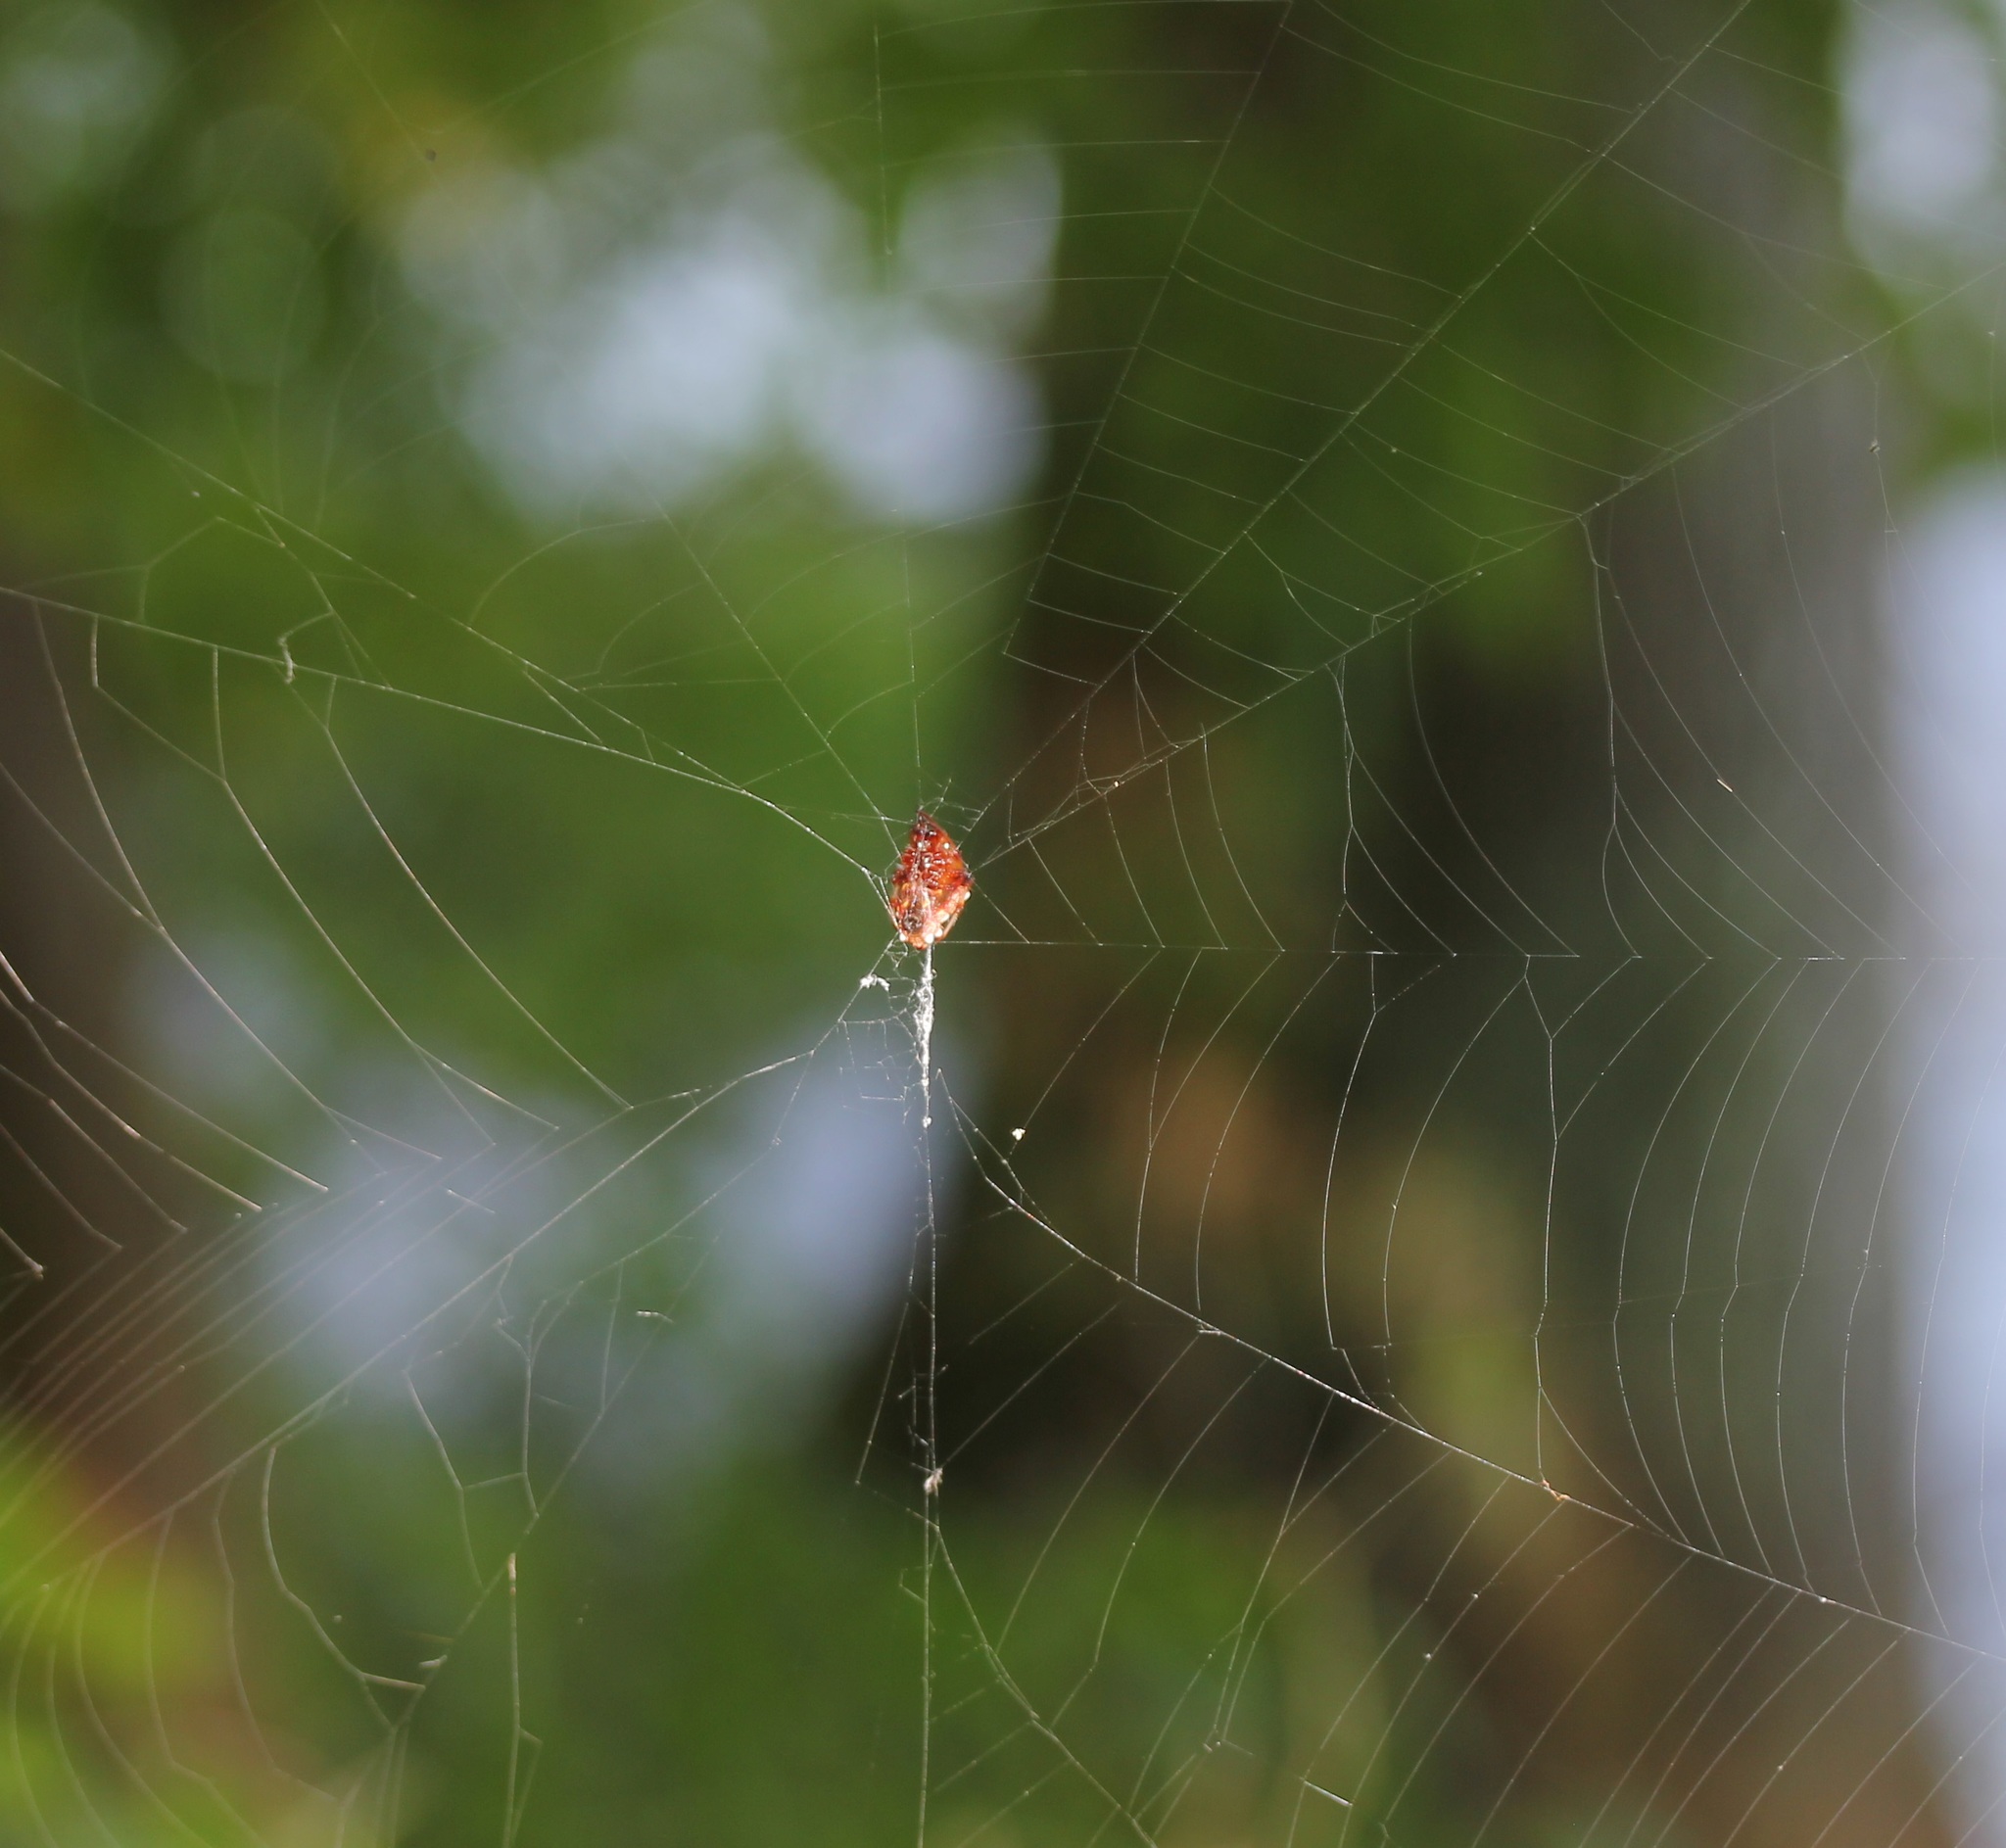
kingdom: Animalia
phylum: Arthropoda
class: Arachnida
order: Araneae
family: Araneidae
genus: Verrucosa
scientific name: Verrucosa arenata
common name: Orb weavers
